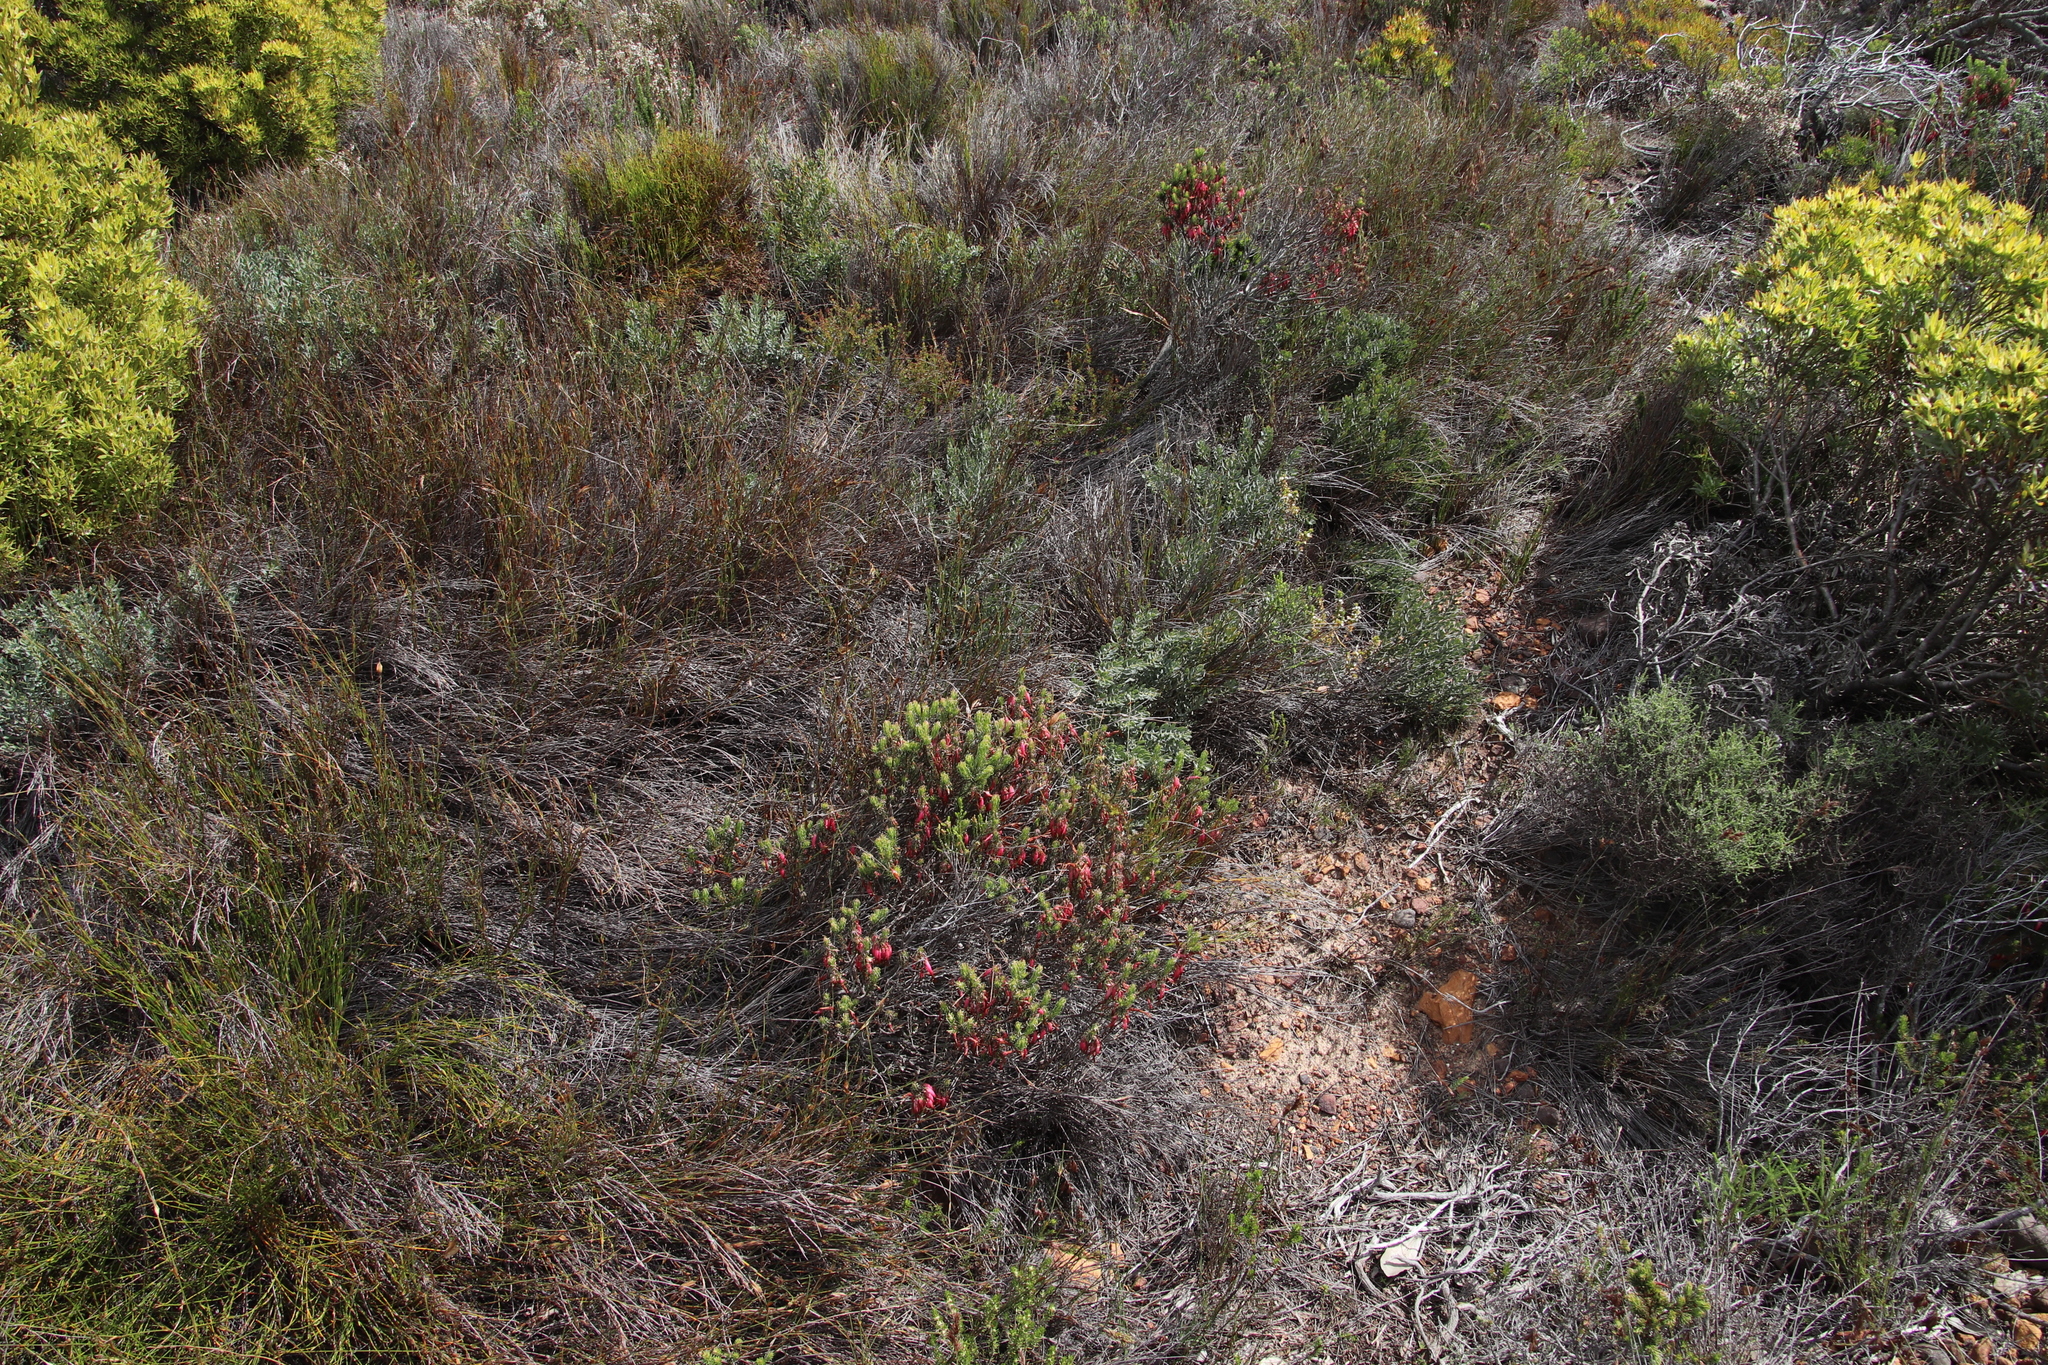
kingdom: Plantae
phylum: Tracheophyta
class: Magnoliopsida
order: Ericales
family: Ericaceae
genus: Erica
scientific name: Erica plukenetii
